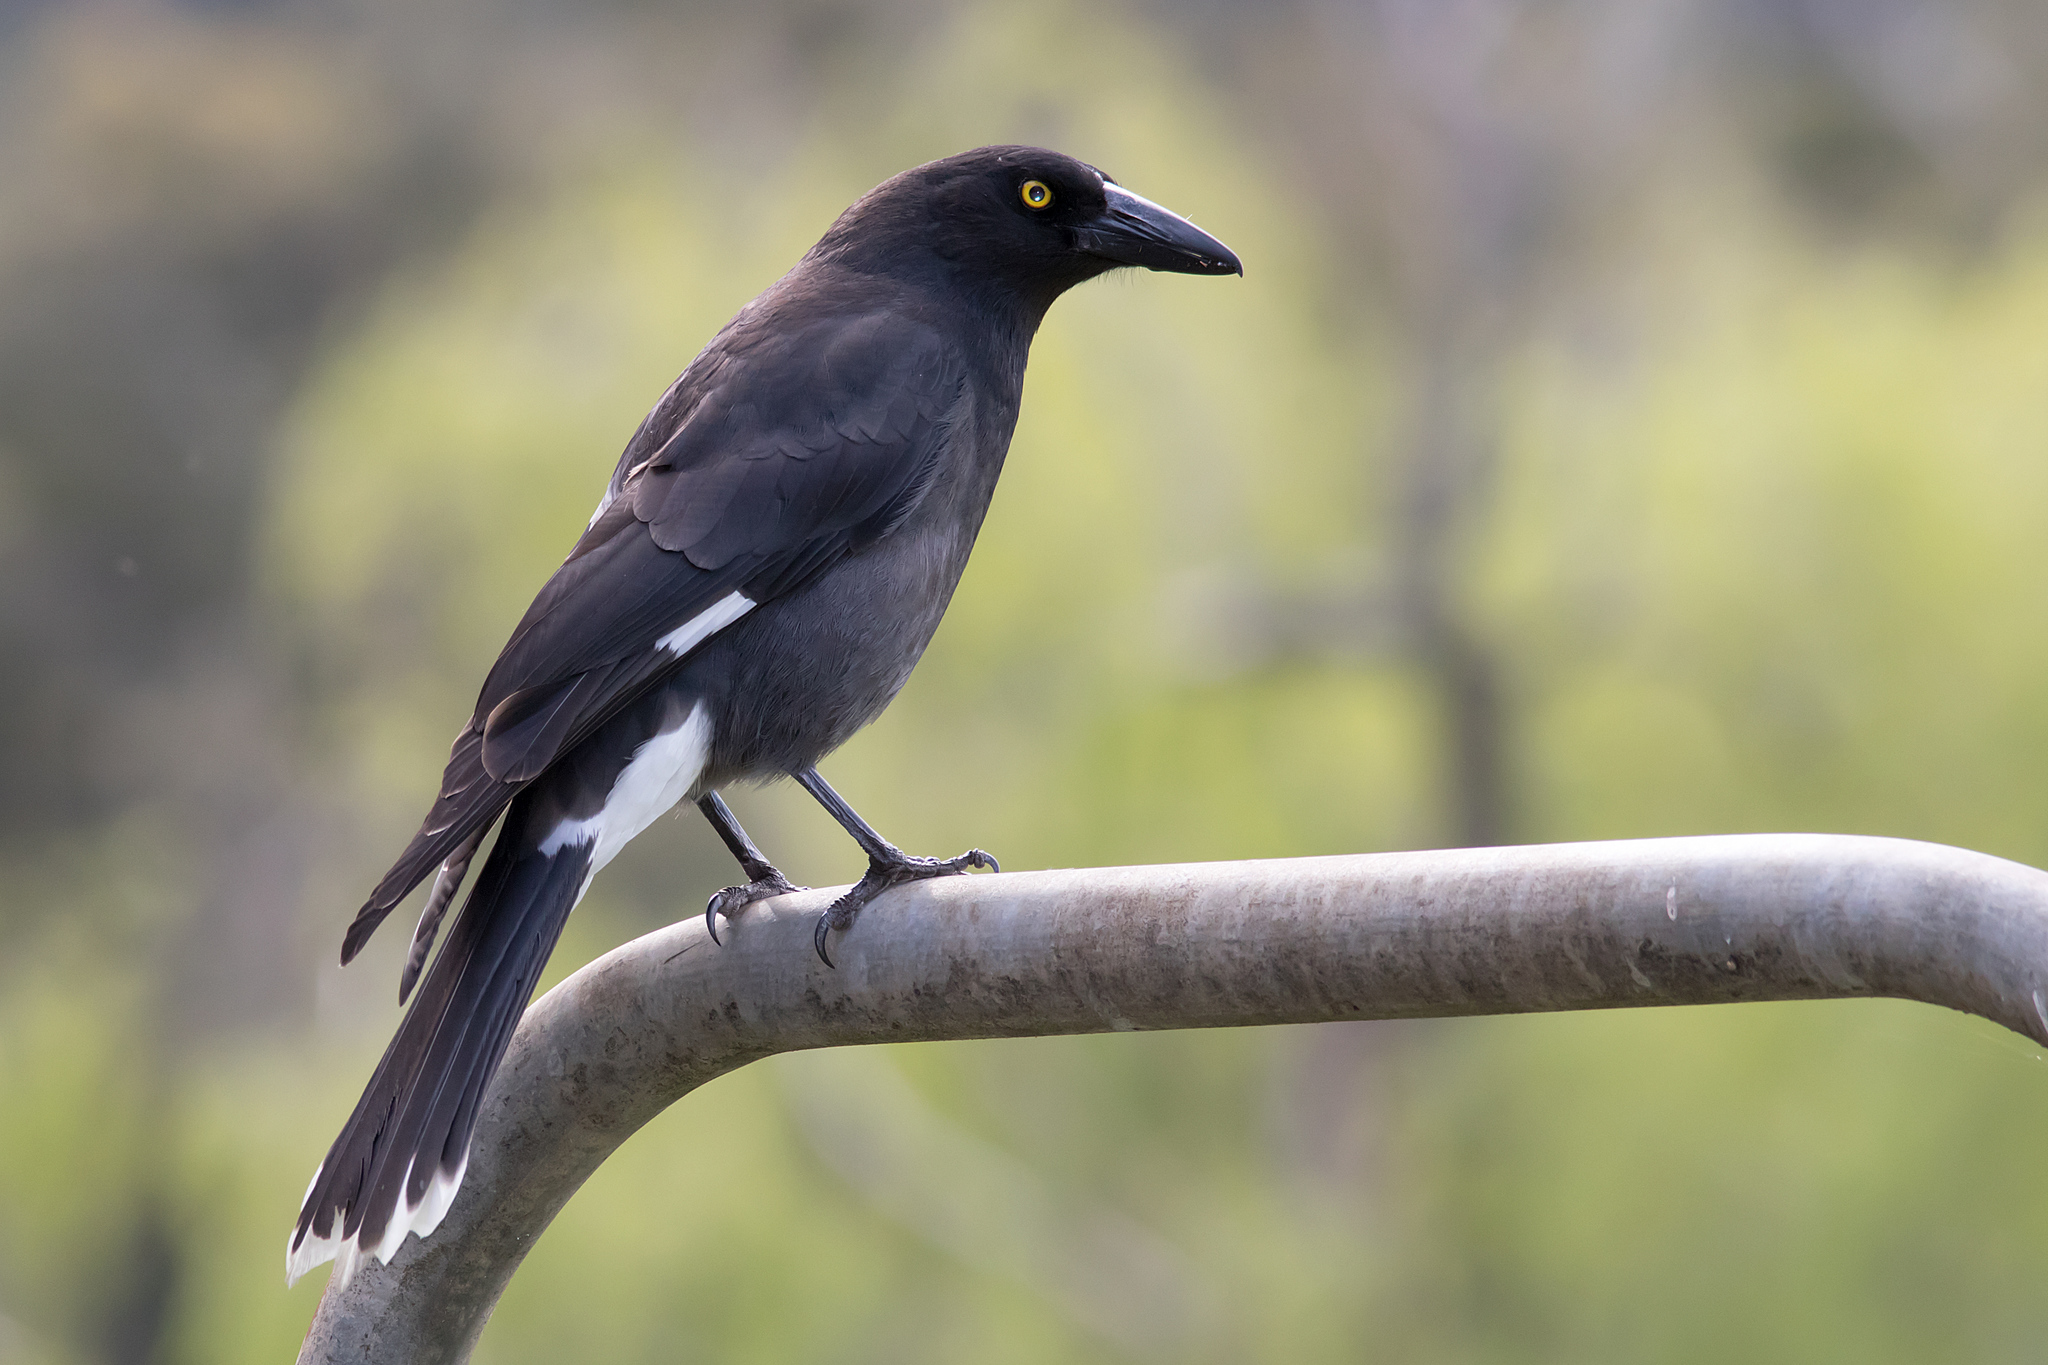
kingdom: Animalia
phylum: Chordata
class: Aves
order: Passeriformes
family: Cracticidae
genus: Strepera
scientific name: Strepera graculina
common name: Pied currawong
